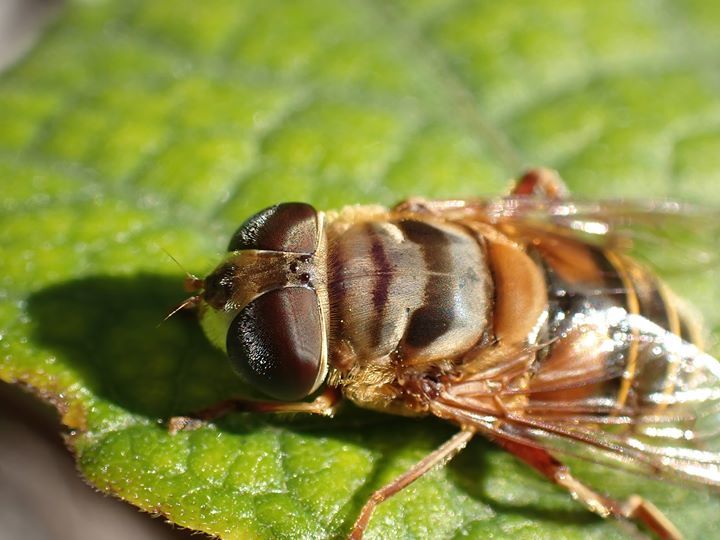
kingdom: Animalia
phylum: Arthropoda
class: Insecta
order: Diptera
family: Syrphidae
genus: Palpada
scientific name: Palpada vinetorum
